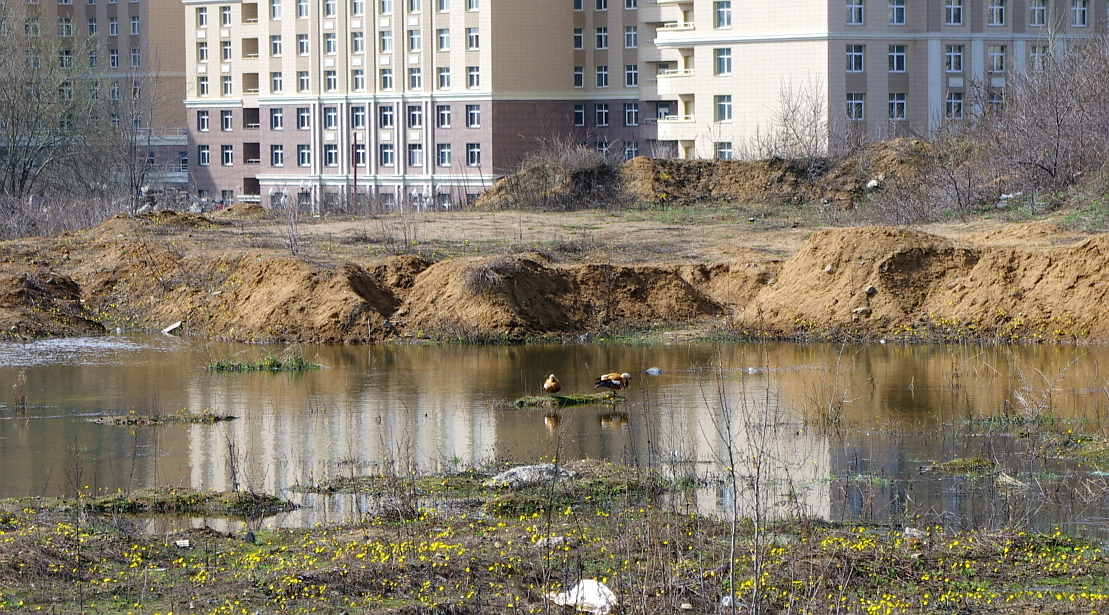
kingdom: Animalia
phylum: Chordata
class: Aves
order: Anseriformes
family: Anatidae
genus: Tadorna
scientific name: Tadorna ferruginea
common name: Ruddy shelduck
